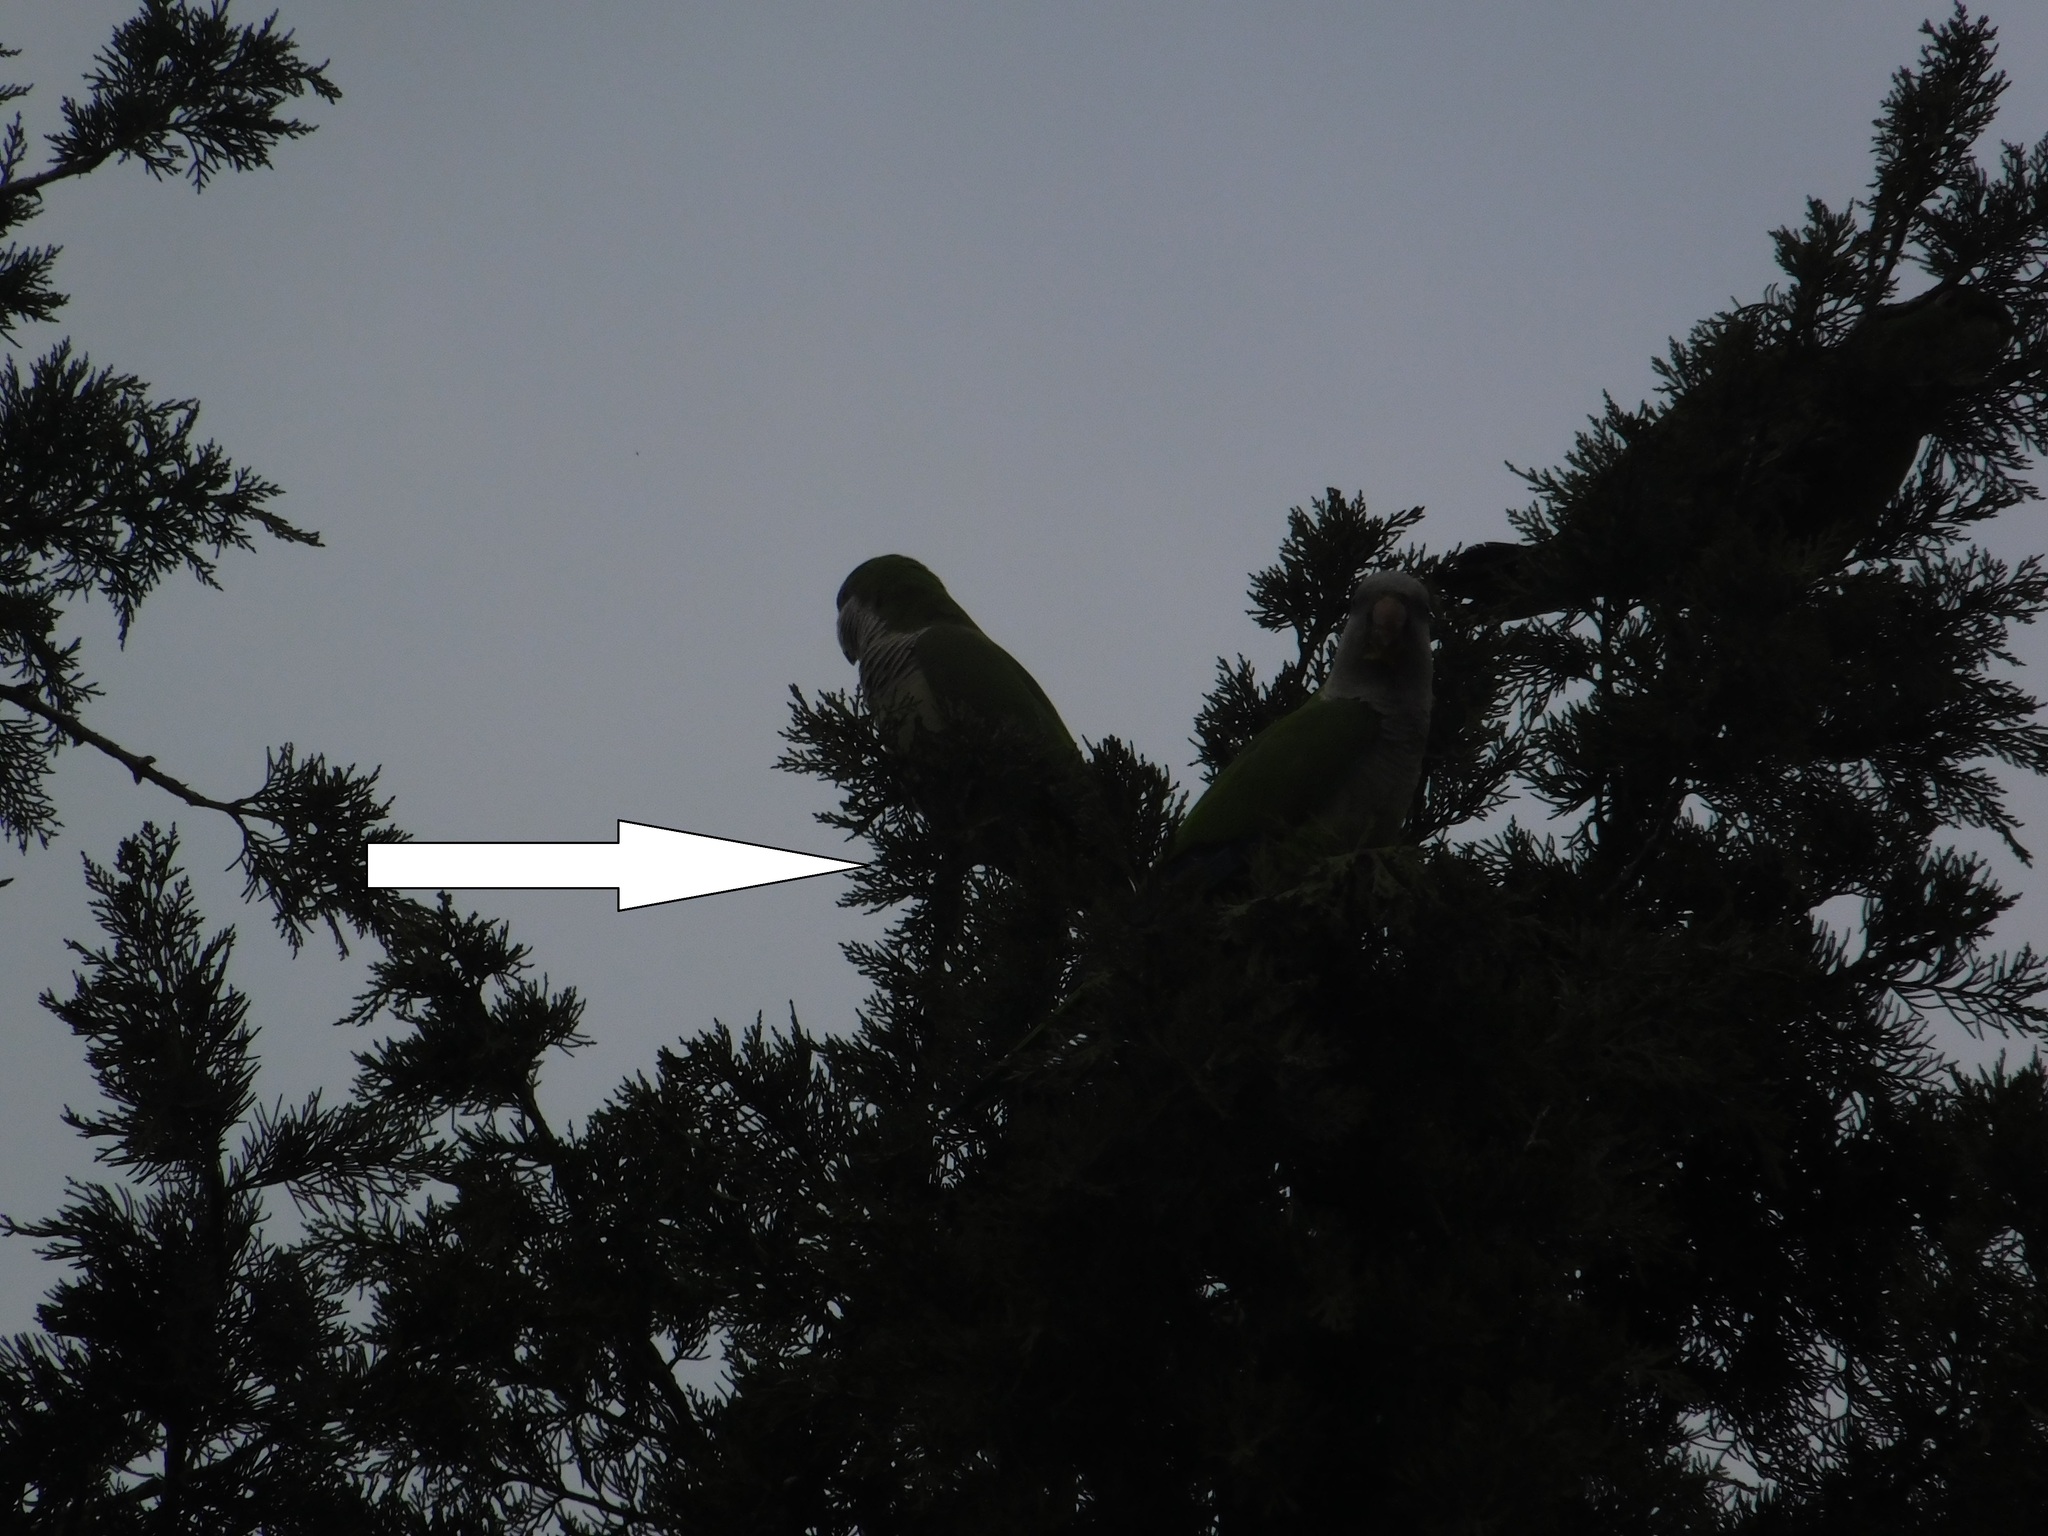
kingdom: Animalia
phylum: Chordata
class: Aves
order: Psittaciformes
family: Psittacidae
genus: Myiopsitta
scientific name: Myiopsitta monachus
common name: Monk parakeet
